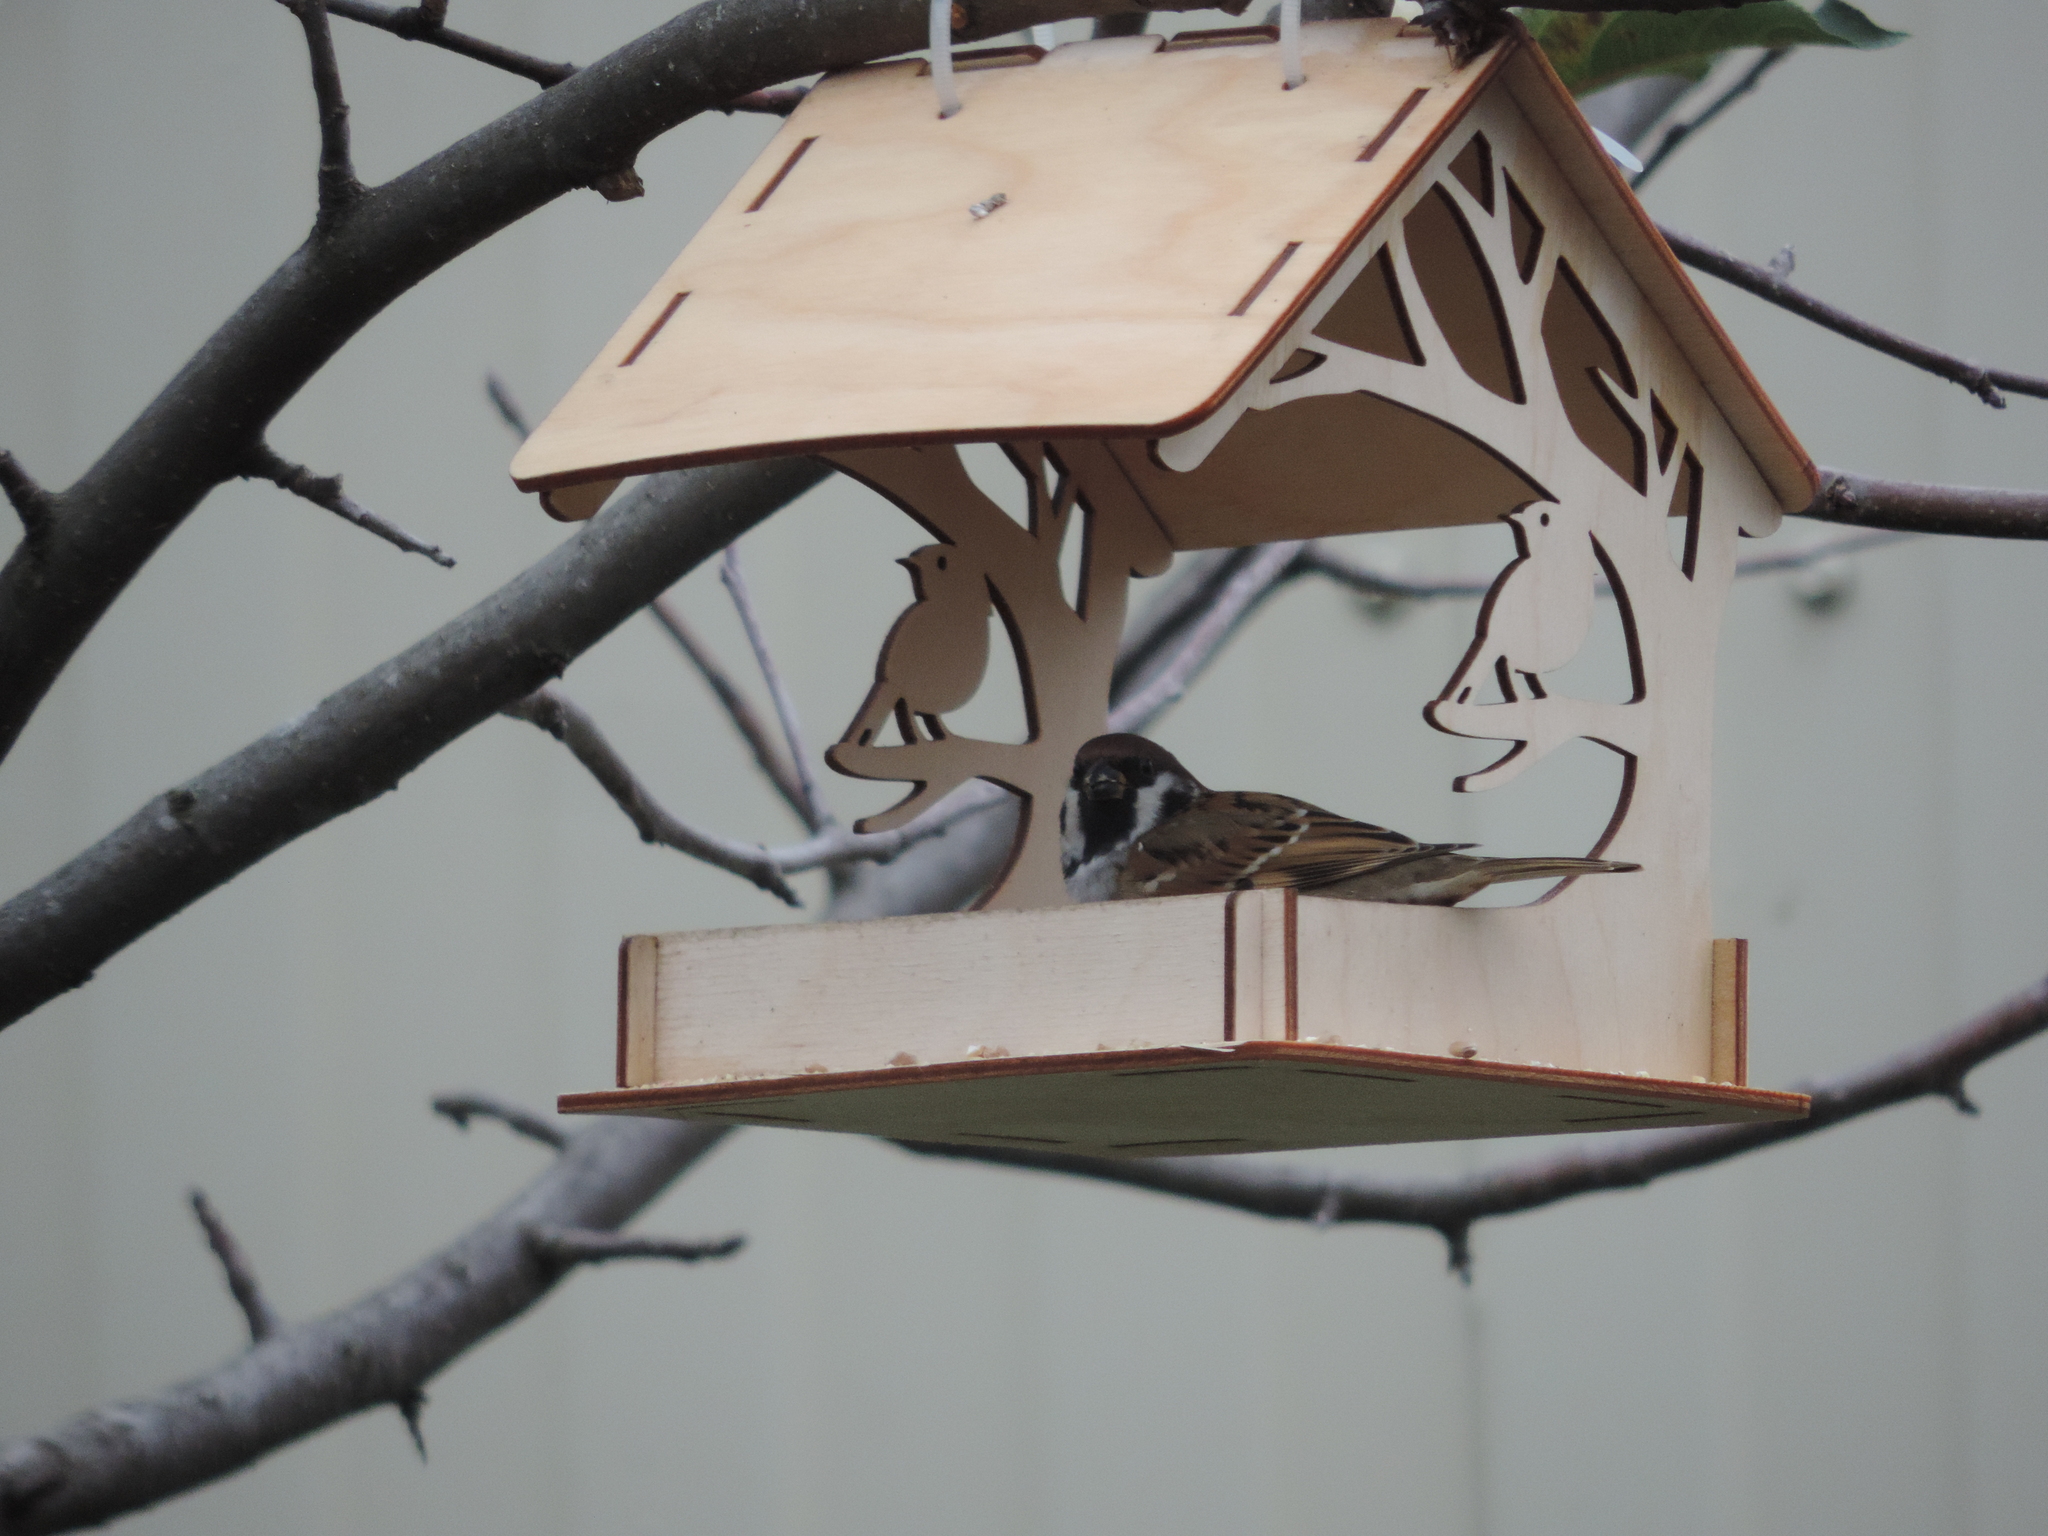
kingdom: Animalia
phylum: Chordata
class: Aves
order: Passeriformes
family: Passeridae
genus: Passer
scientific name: Passer montanus
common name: Eurasian tree sparrow
